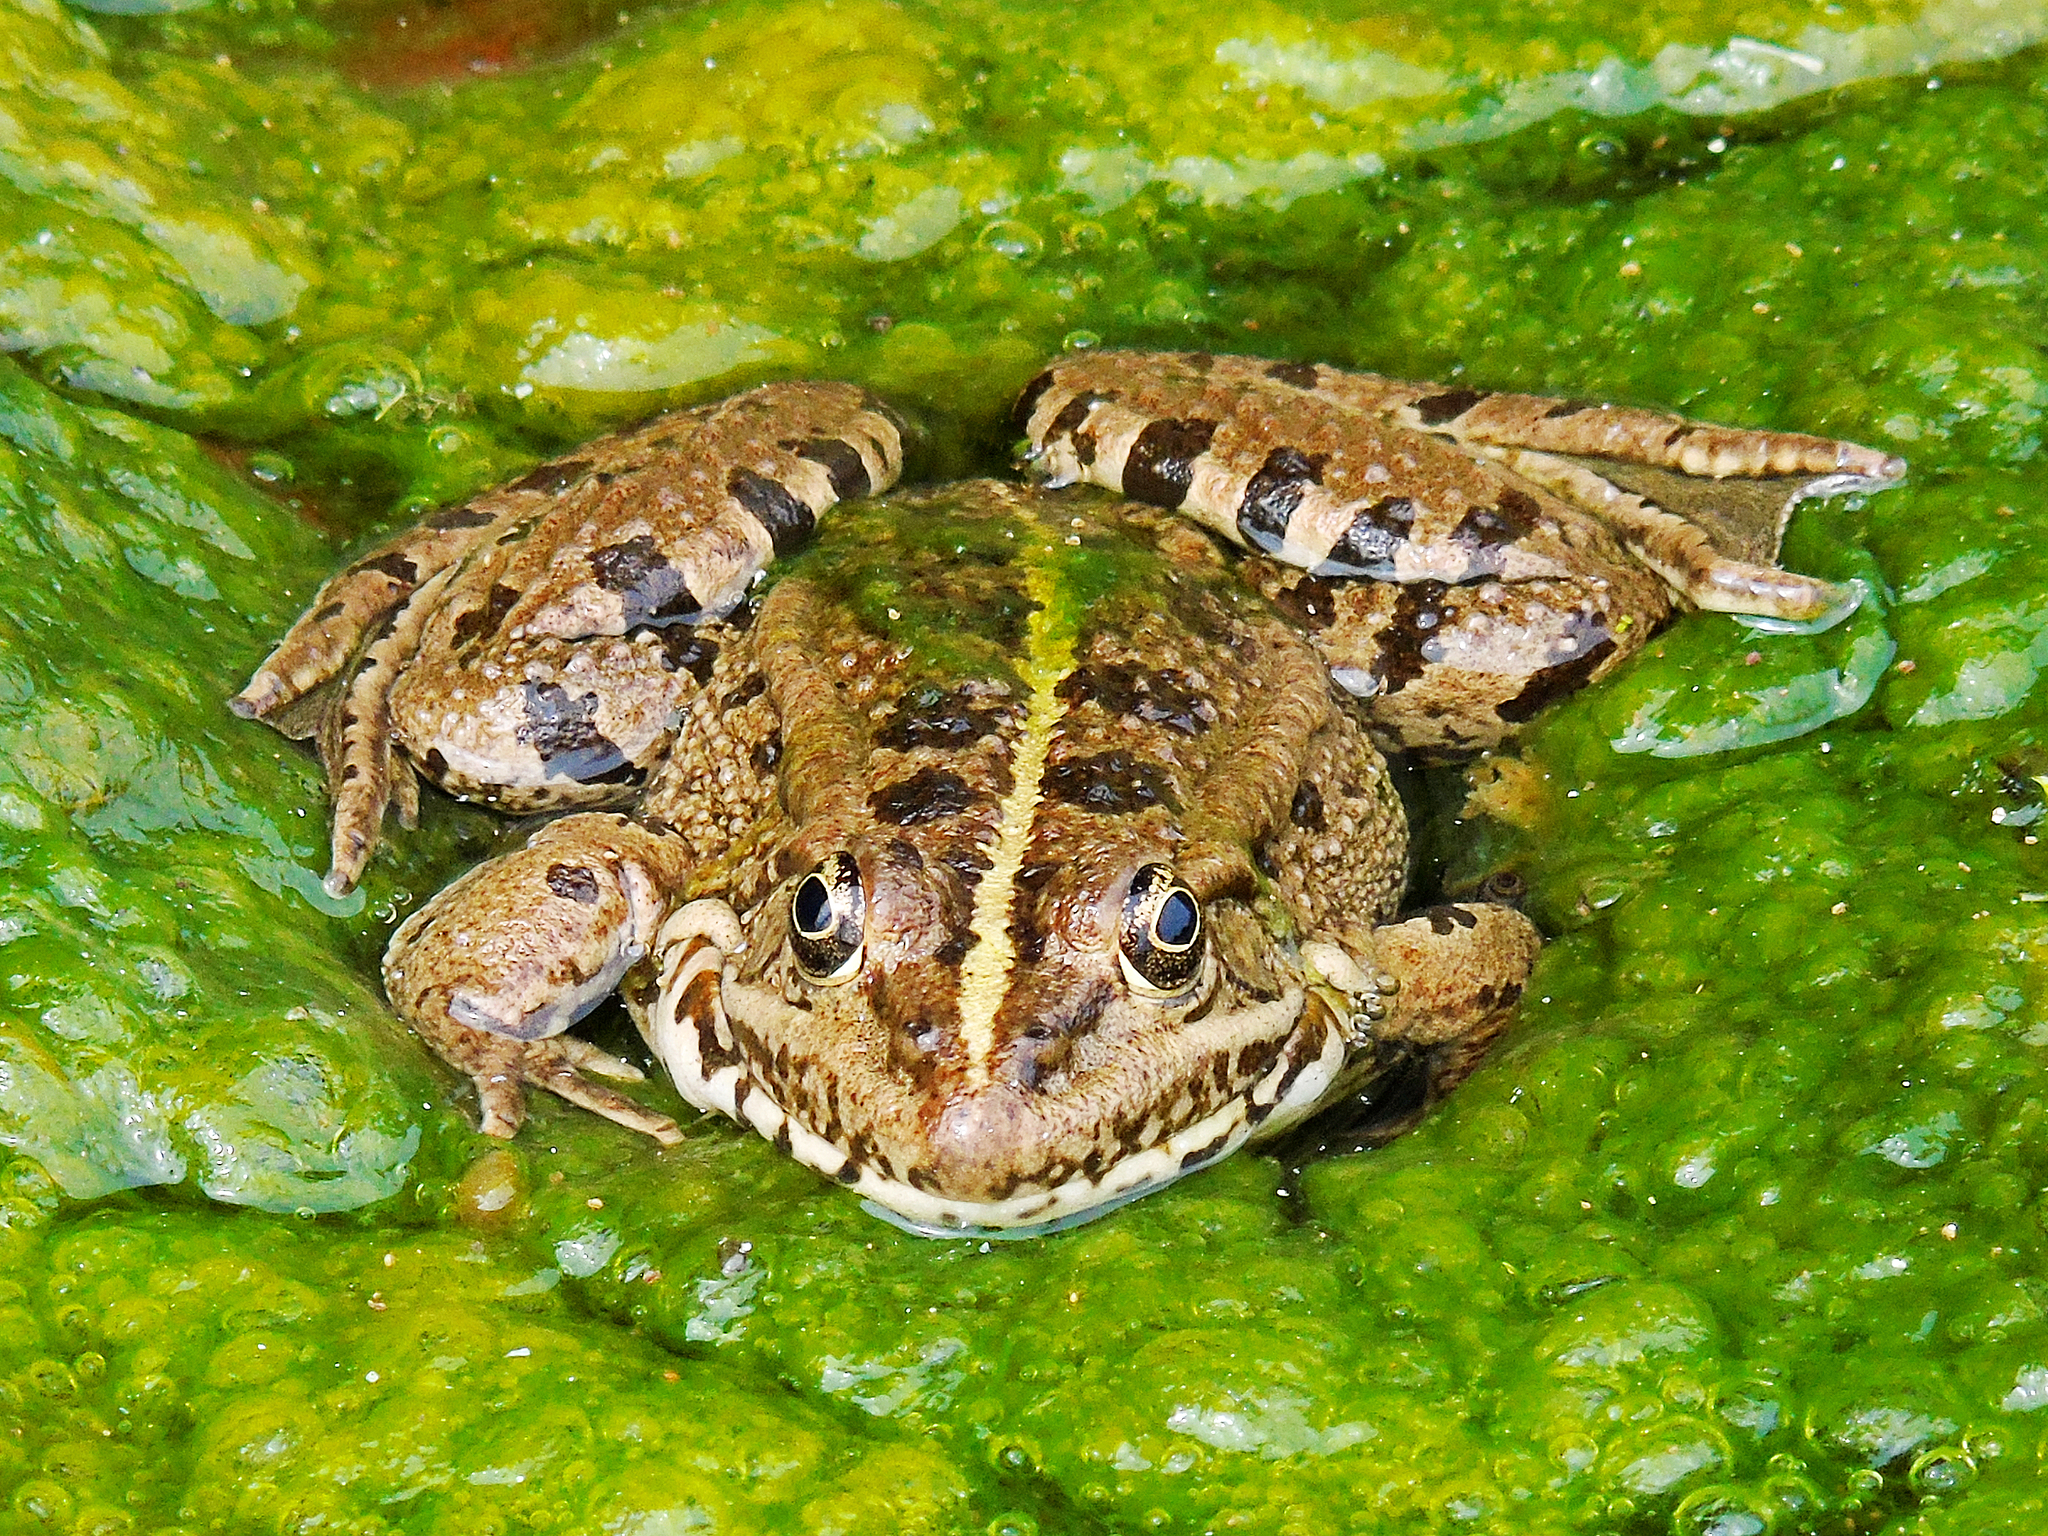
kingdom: Animalia
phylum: Chordata
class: Amphibia
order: Anura
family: Ranidae
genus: Pelophylax
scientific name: Pelophylax ridibundus
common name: Marsh frog
